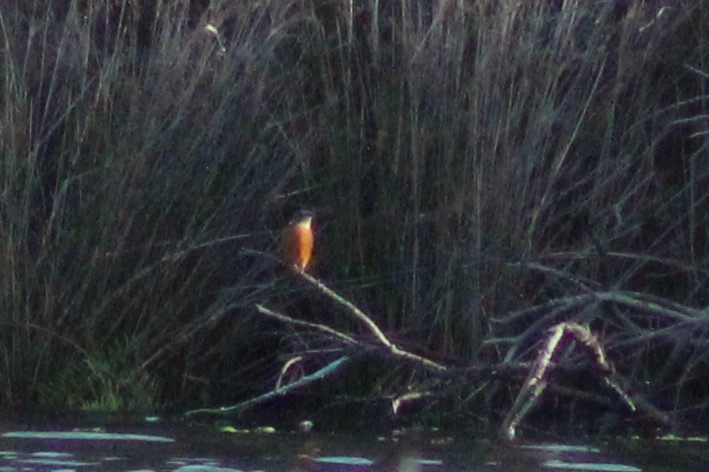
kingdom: Animalia
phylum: Chordata
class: Aves
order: Coraciiformes
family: Alcedinidae
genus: Alcedo
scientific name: Alcedo atthis
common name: Common kingfisher
